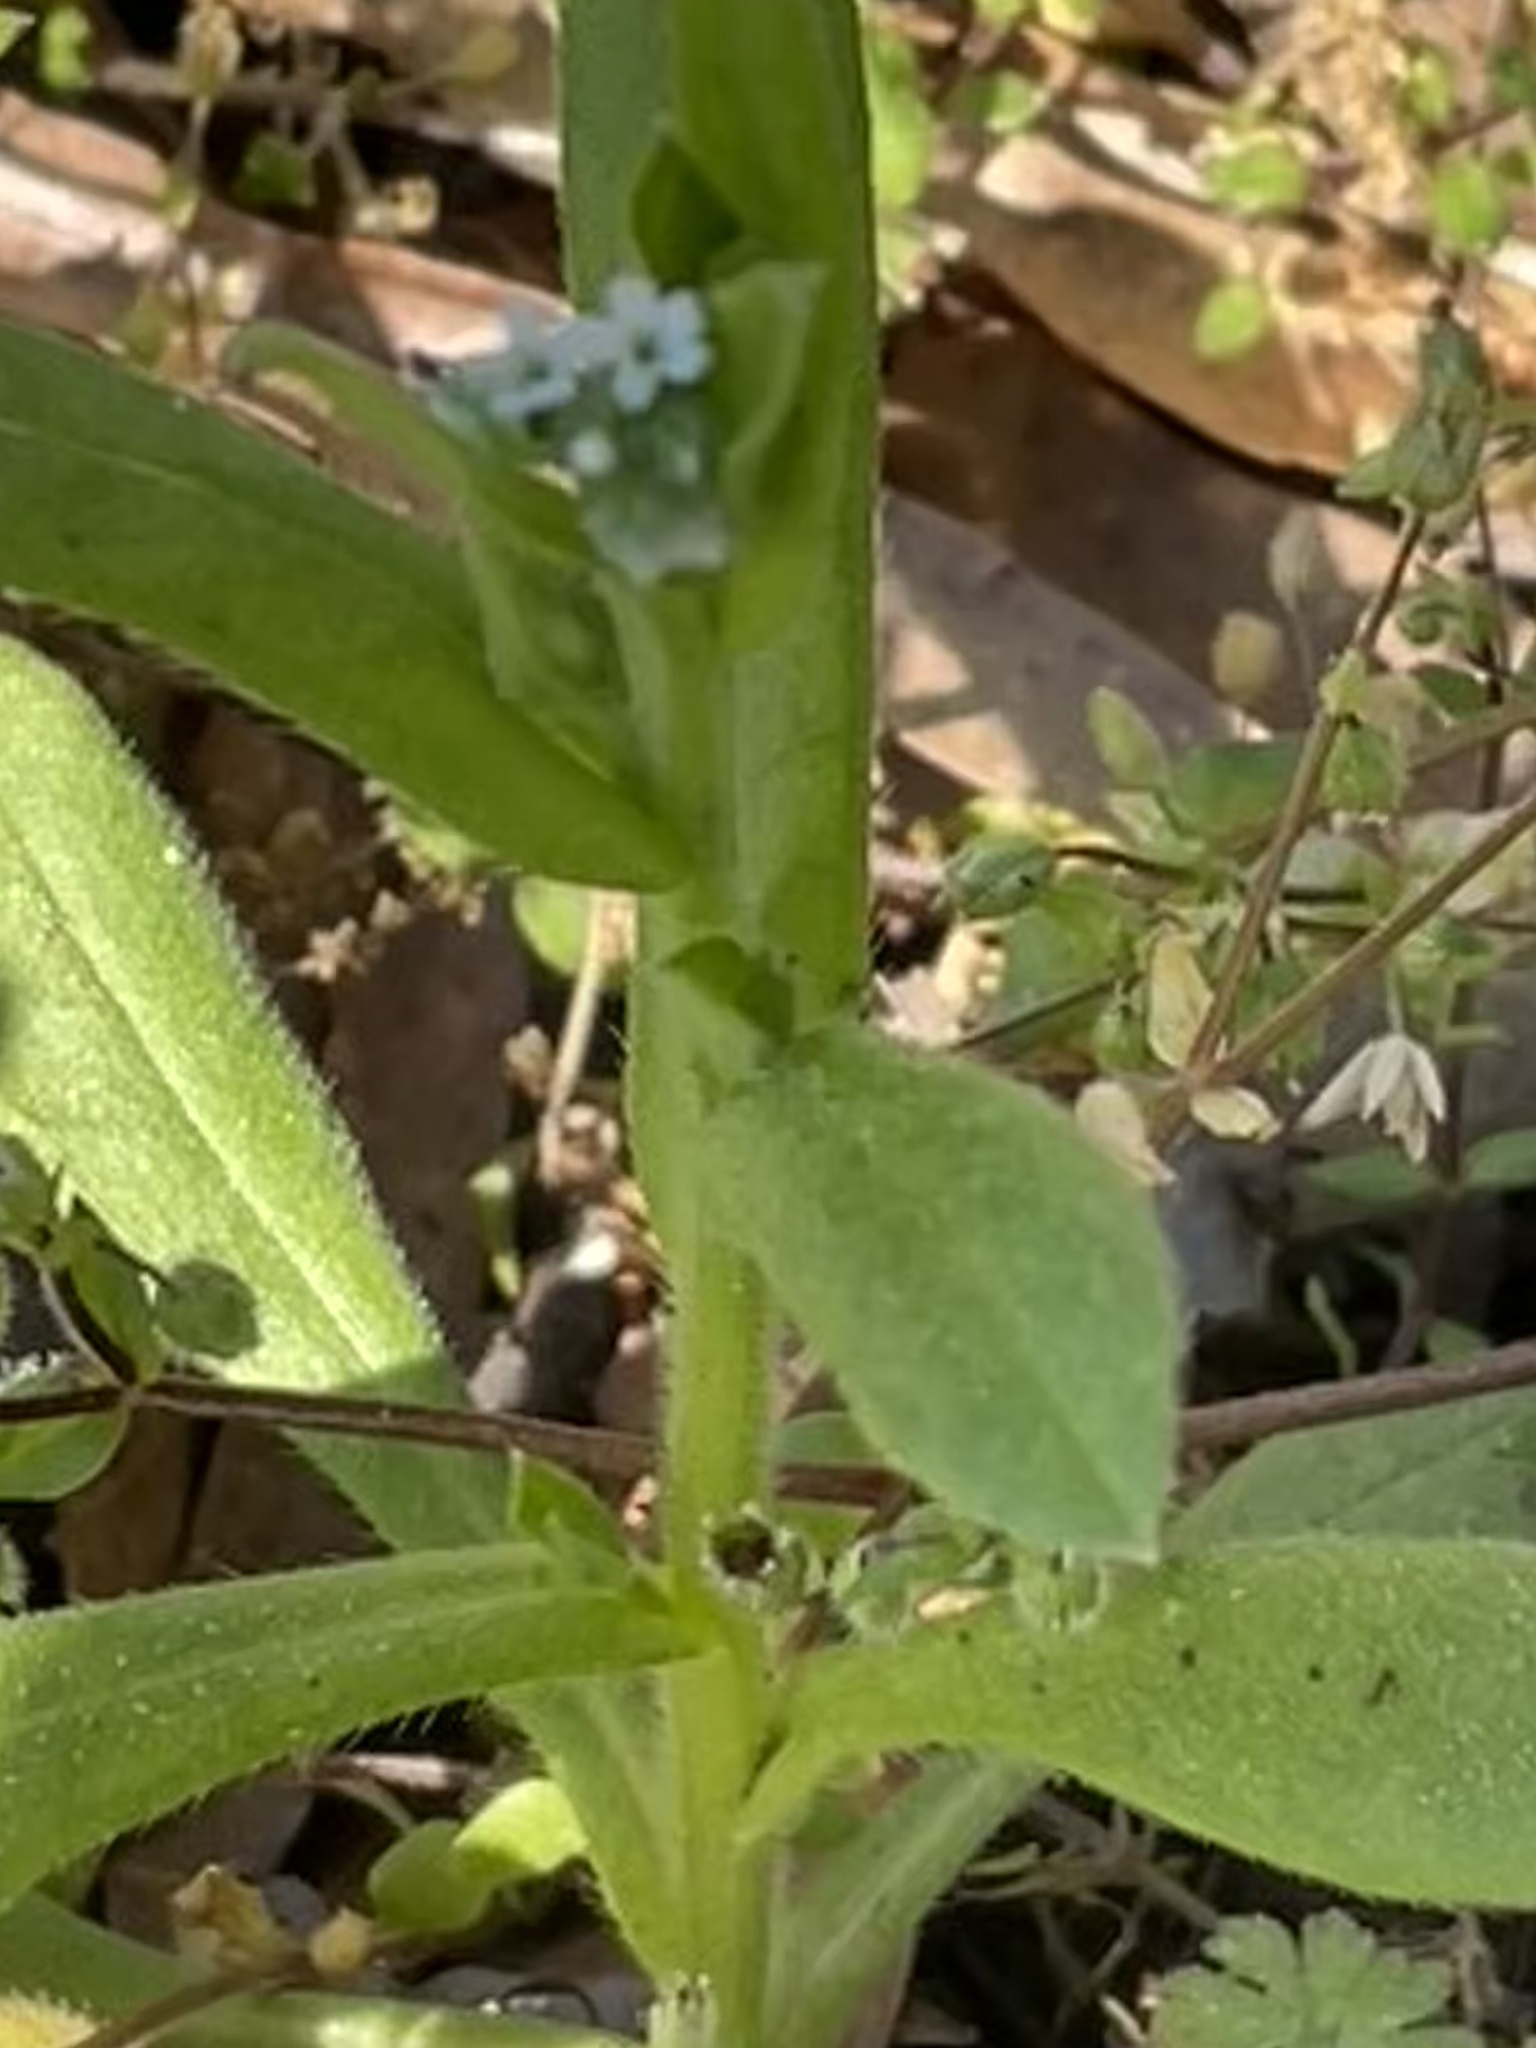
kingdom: Plantae
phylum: Tracheophyta
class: Magnoliopsida
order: Boraginales
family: Boraginaceae
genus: Myosotis
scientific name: Myosotis macrosperma
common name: Large-seed forget-me-not
